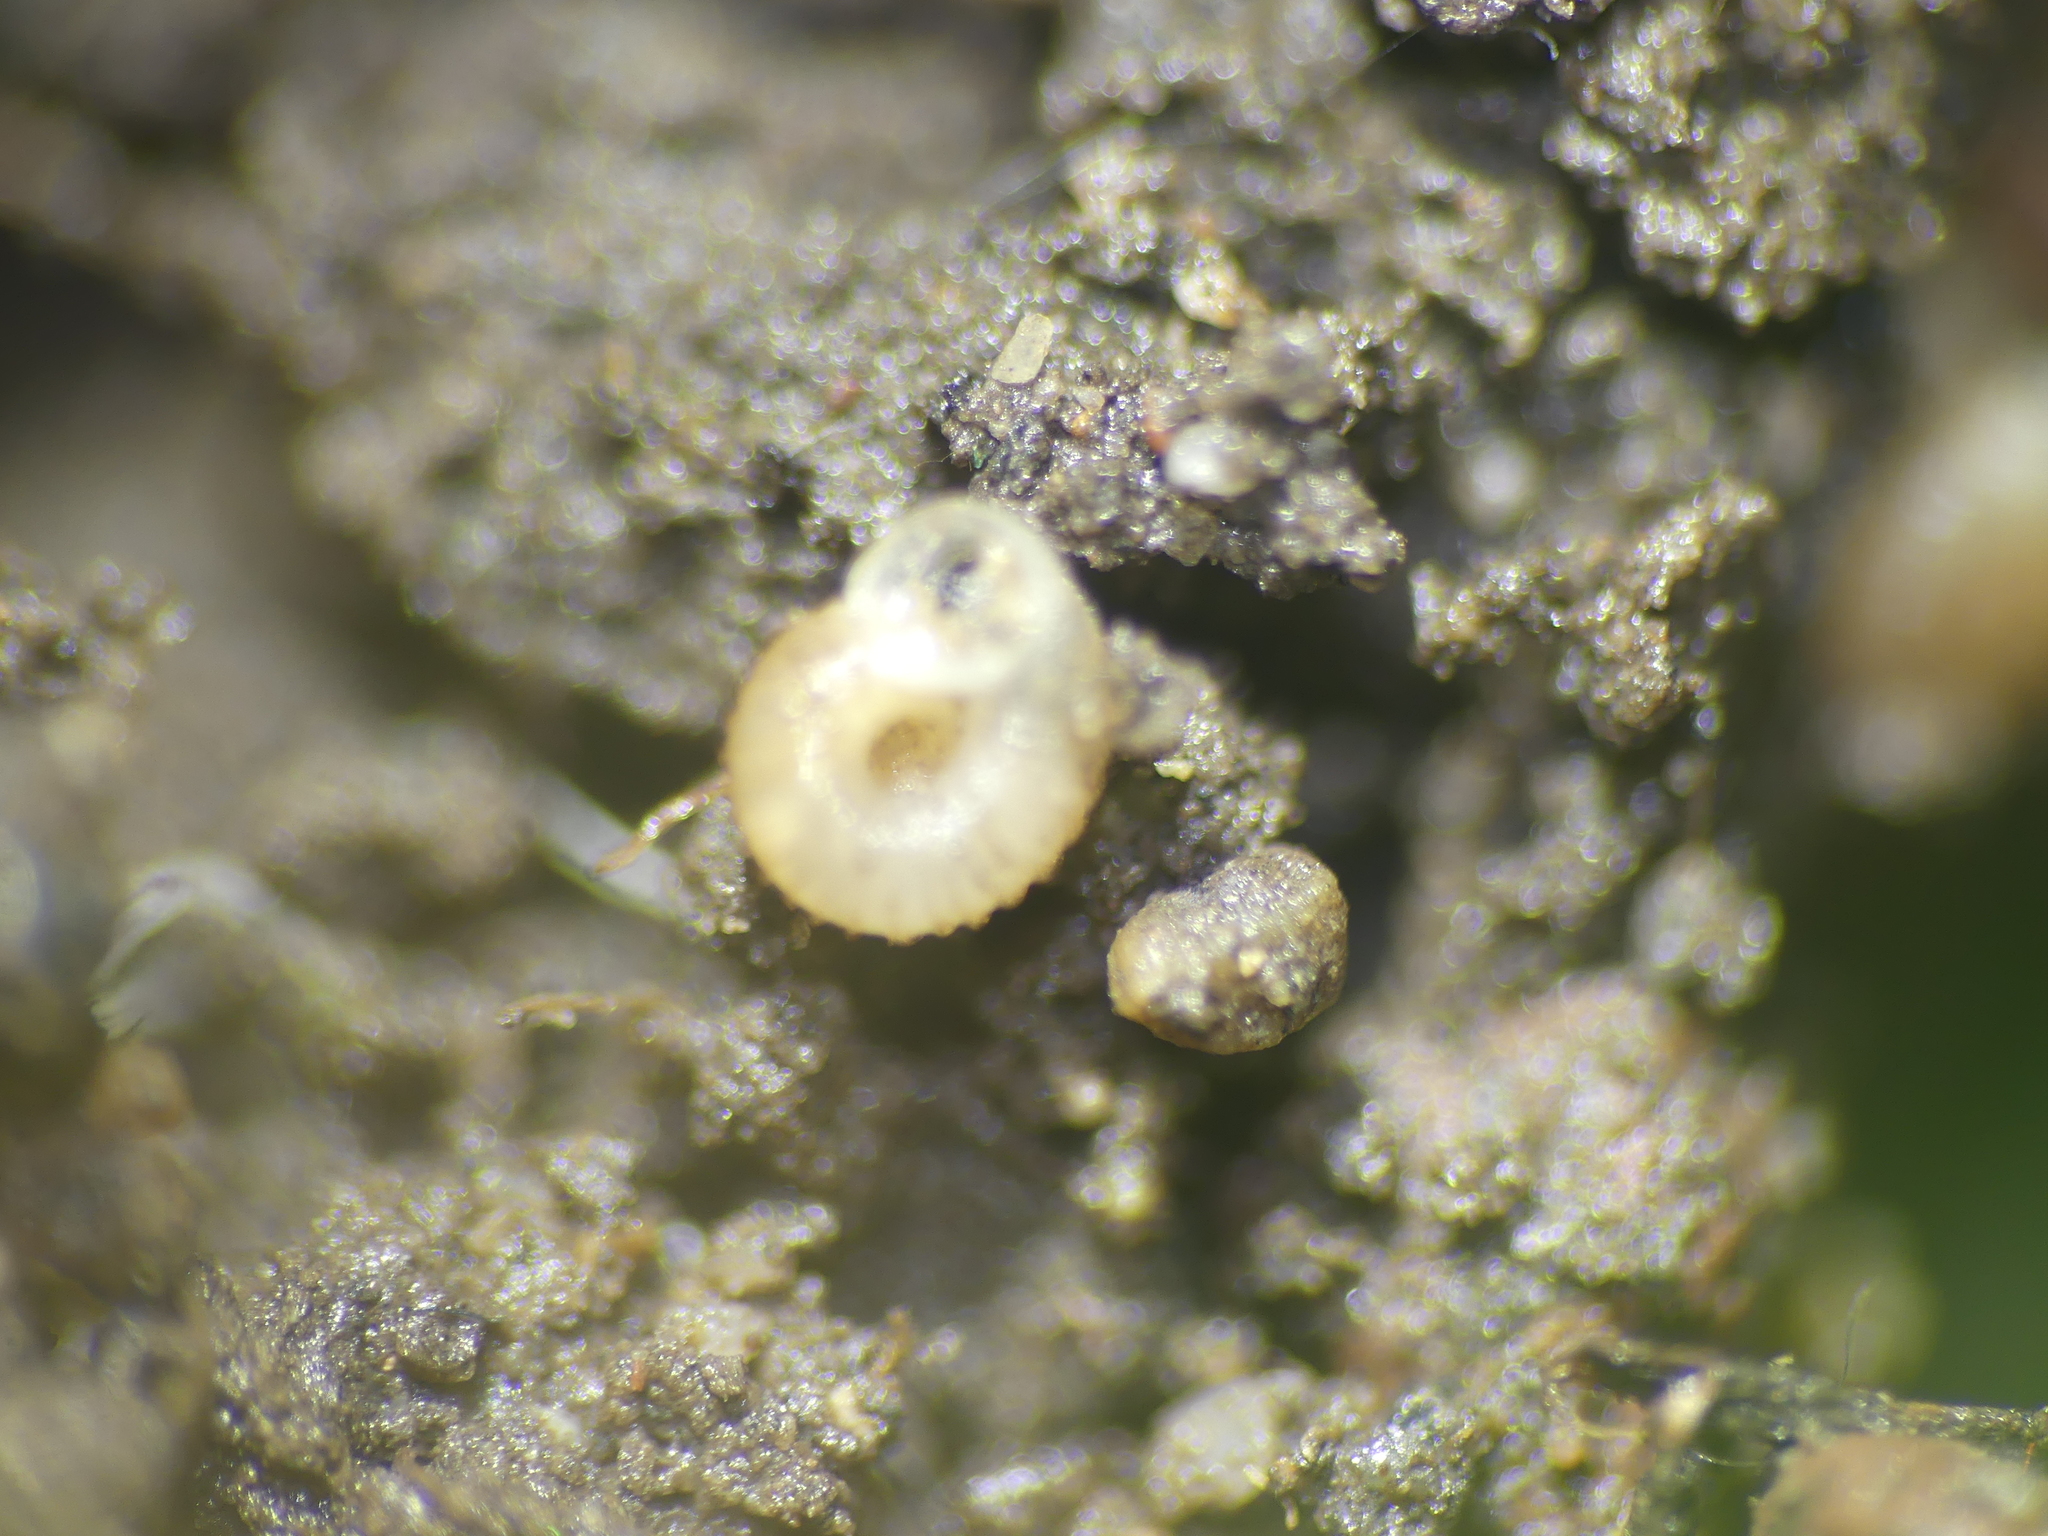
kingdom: Animalia
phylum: Mollusca
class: Gastropoda
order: Stylommatophora
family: Valloniidae
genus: Vallonia
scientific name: Vallonia costata
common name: Ribbed grass snail
